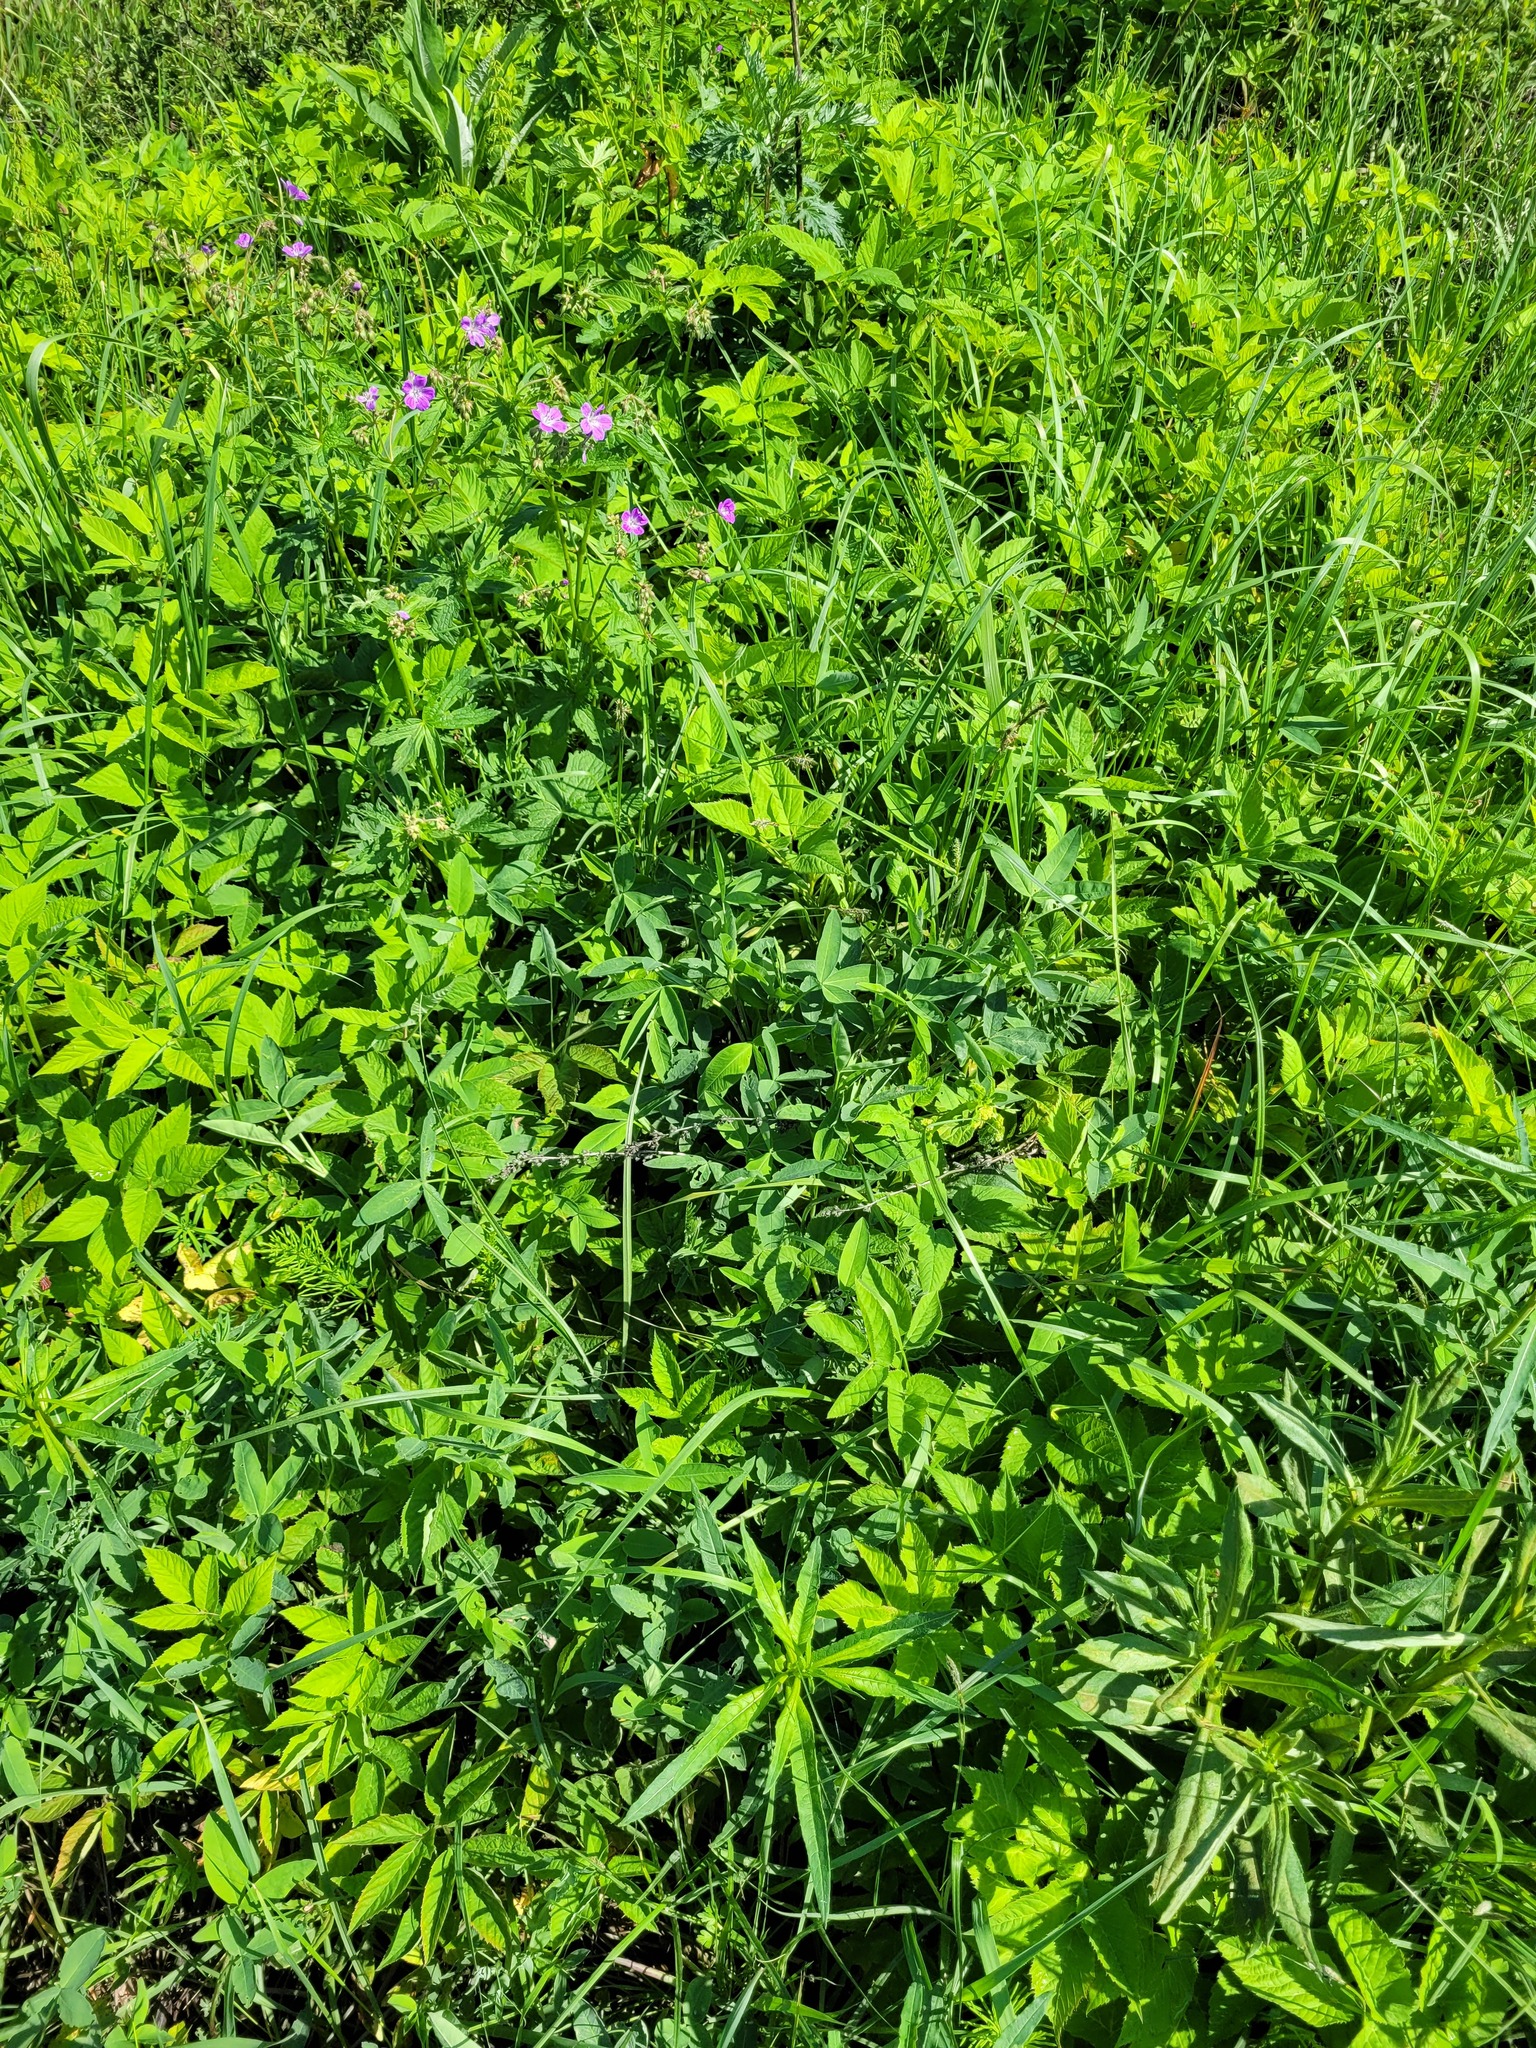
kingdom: Plantae
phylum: Tracheophyta
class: Magnoliopsida
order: Fabales
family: Fabaceae
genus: Trifolium
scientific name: Trifolium medium
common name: Zigzag clover
